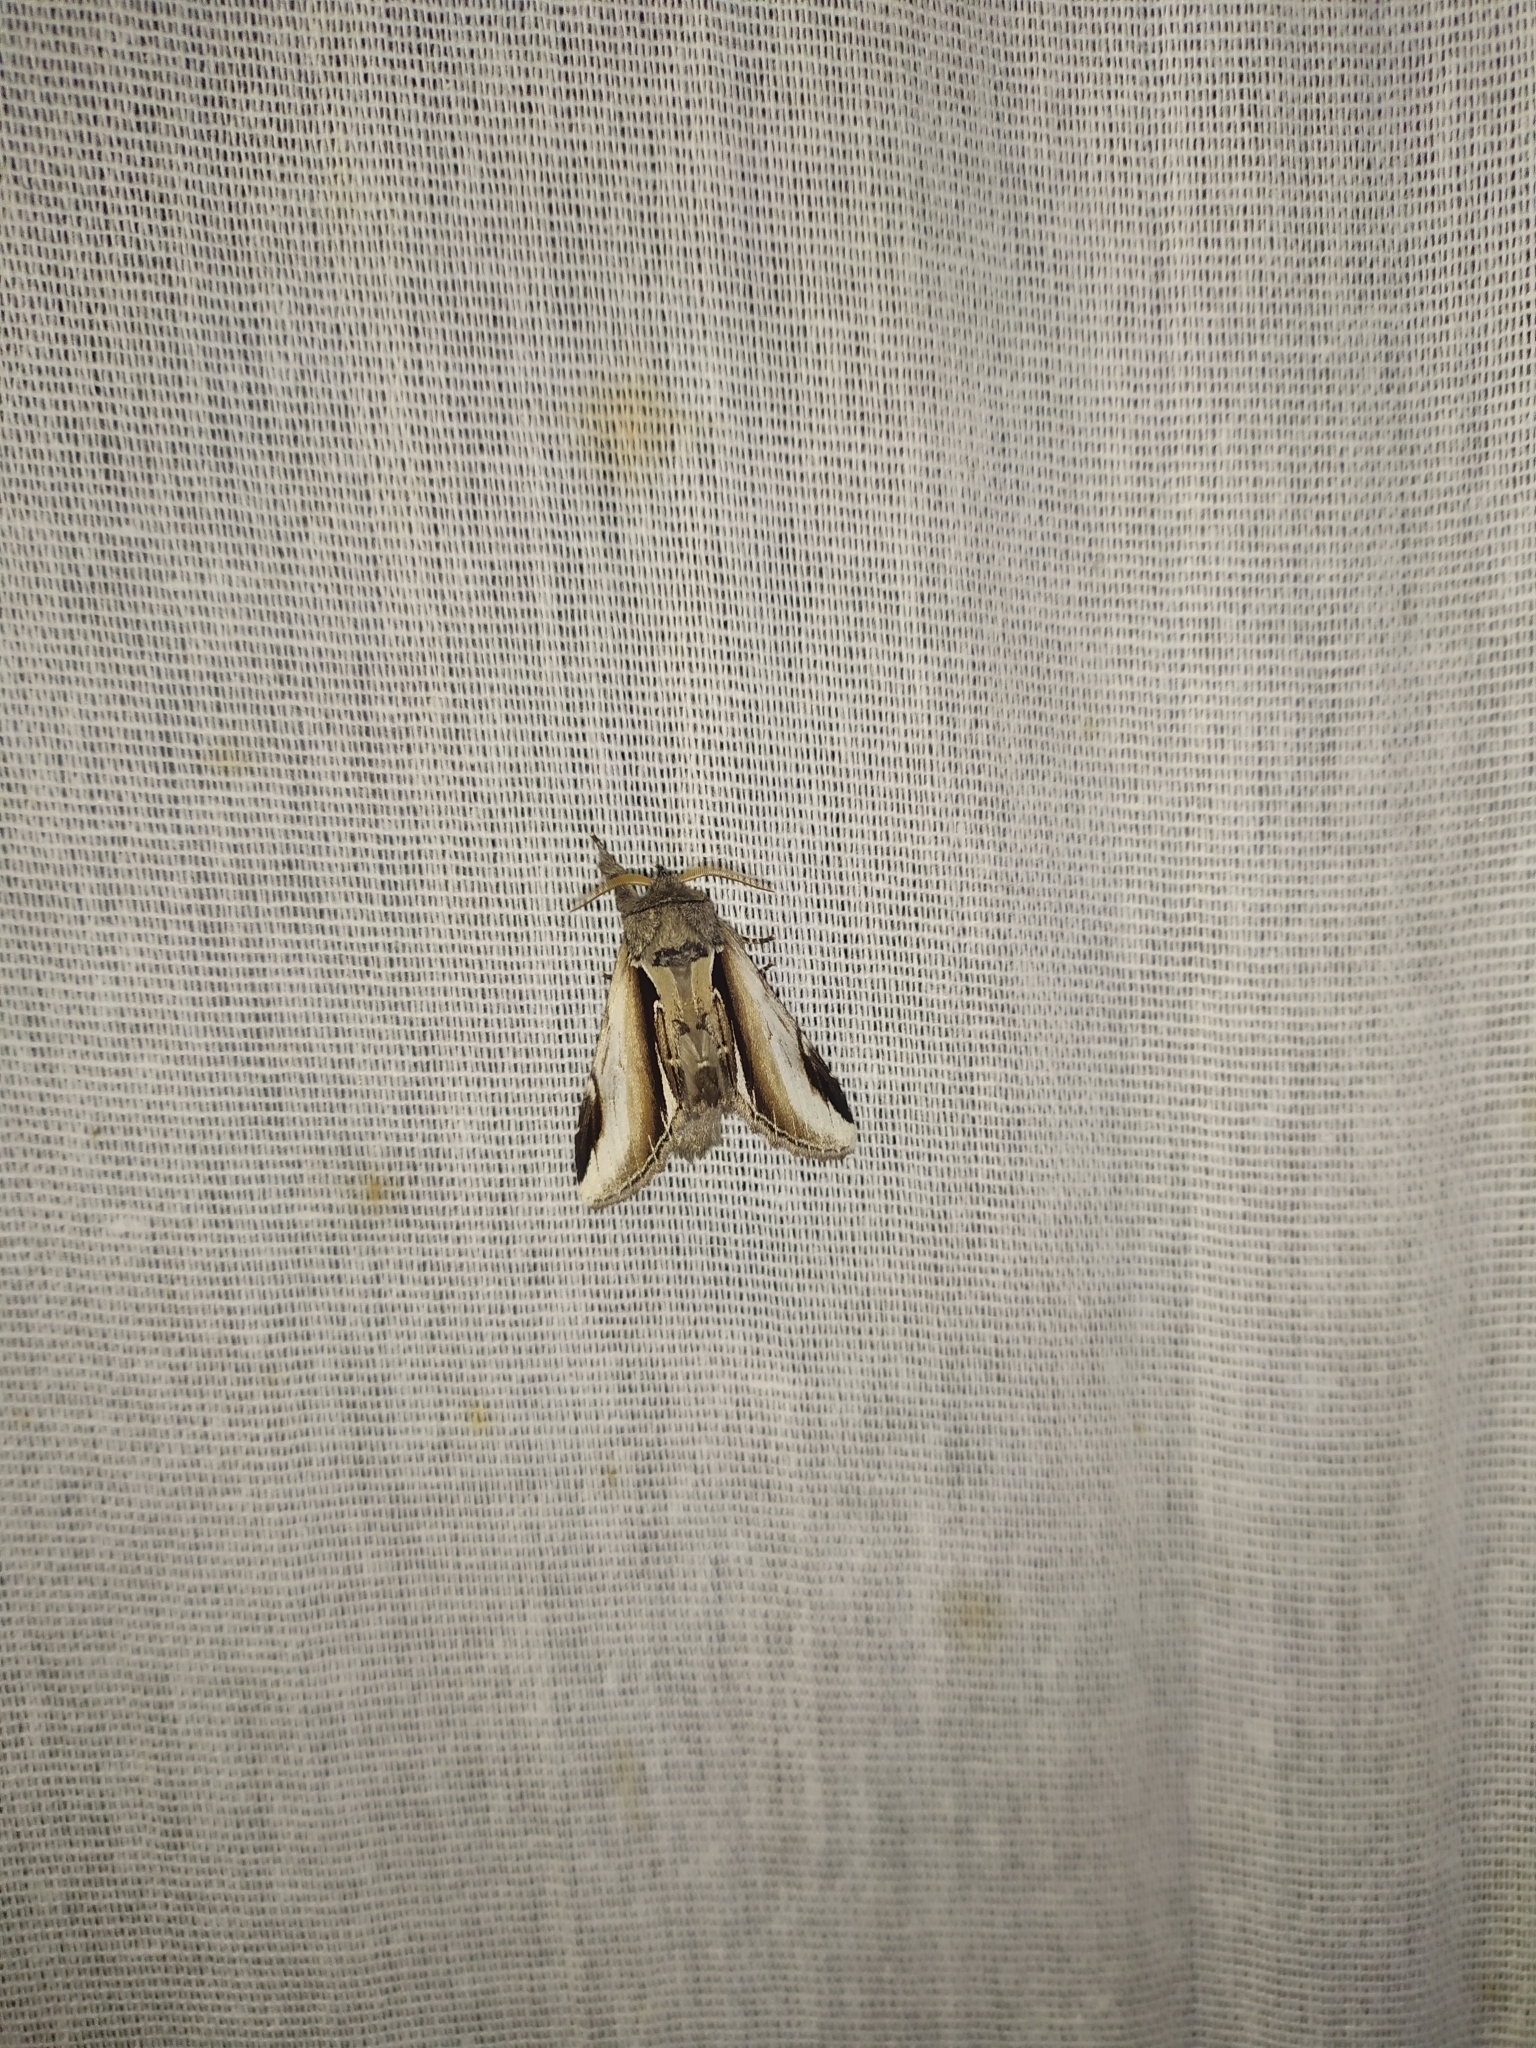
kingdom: Animalia
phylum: Arthropoda
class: Insecta
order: Lepidoptera
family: Notodontidae
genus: Pheosia
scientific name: Pheosia gnoma
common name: Lesser swallow prominent
